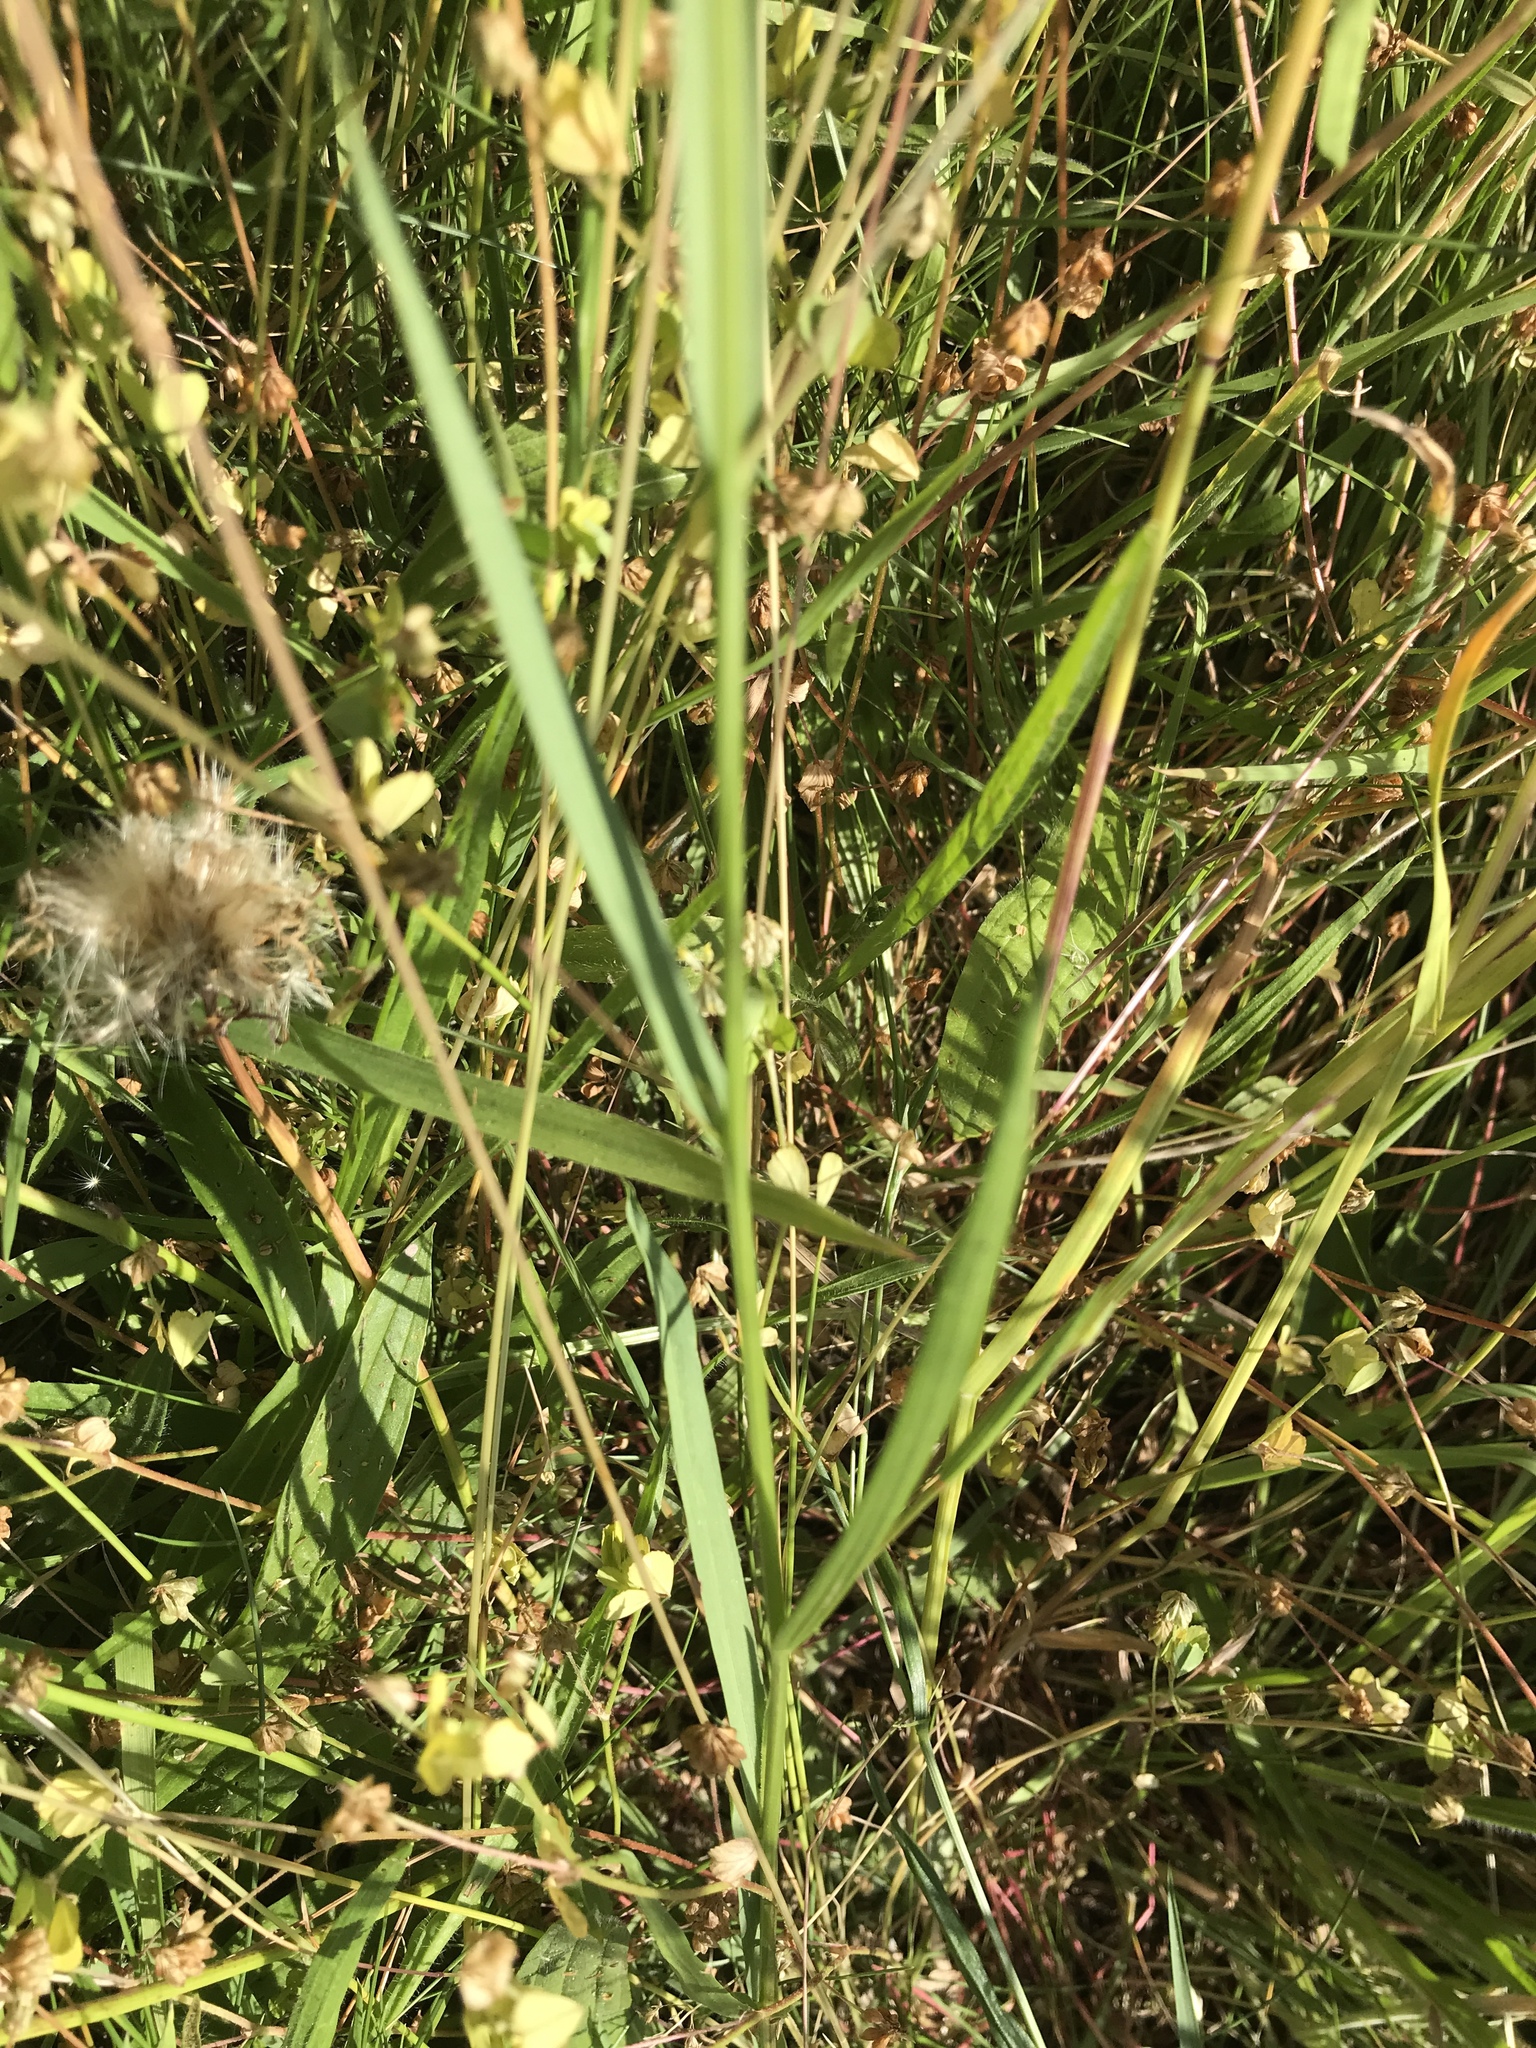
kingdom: Plantae
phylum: Tracheophyta
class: Magnoliopsida
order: Fabales
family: Fabaceae
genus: Lathyrus
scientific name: Lathyrus nissolia
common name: Grass vetchling
